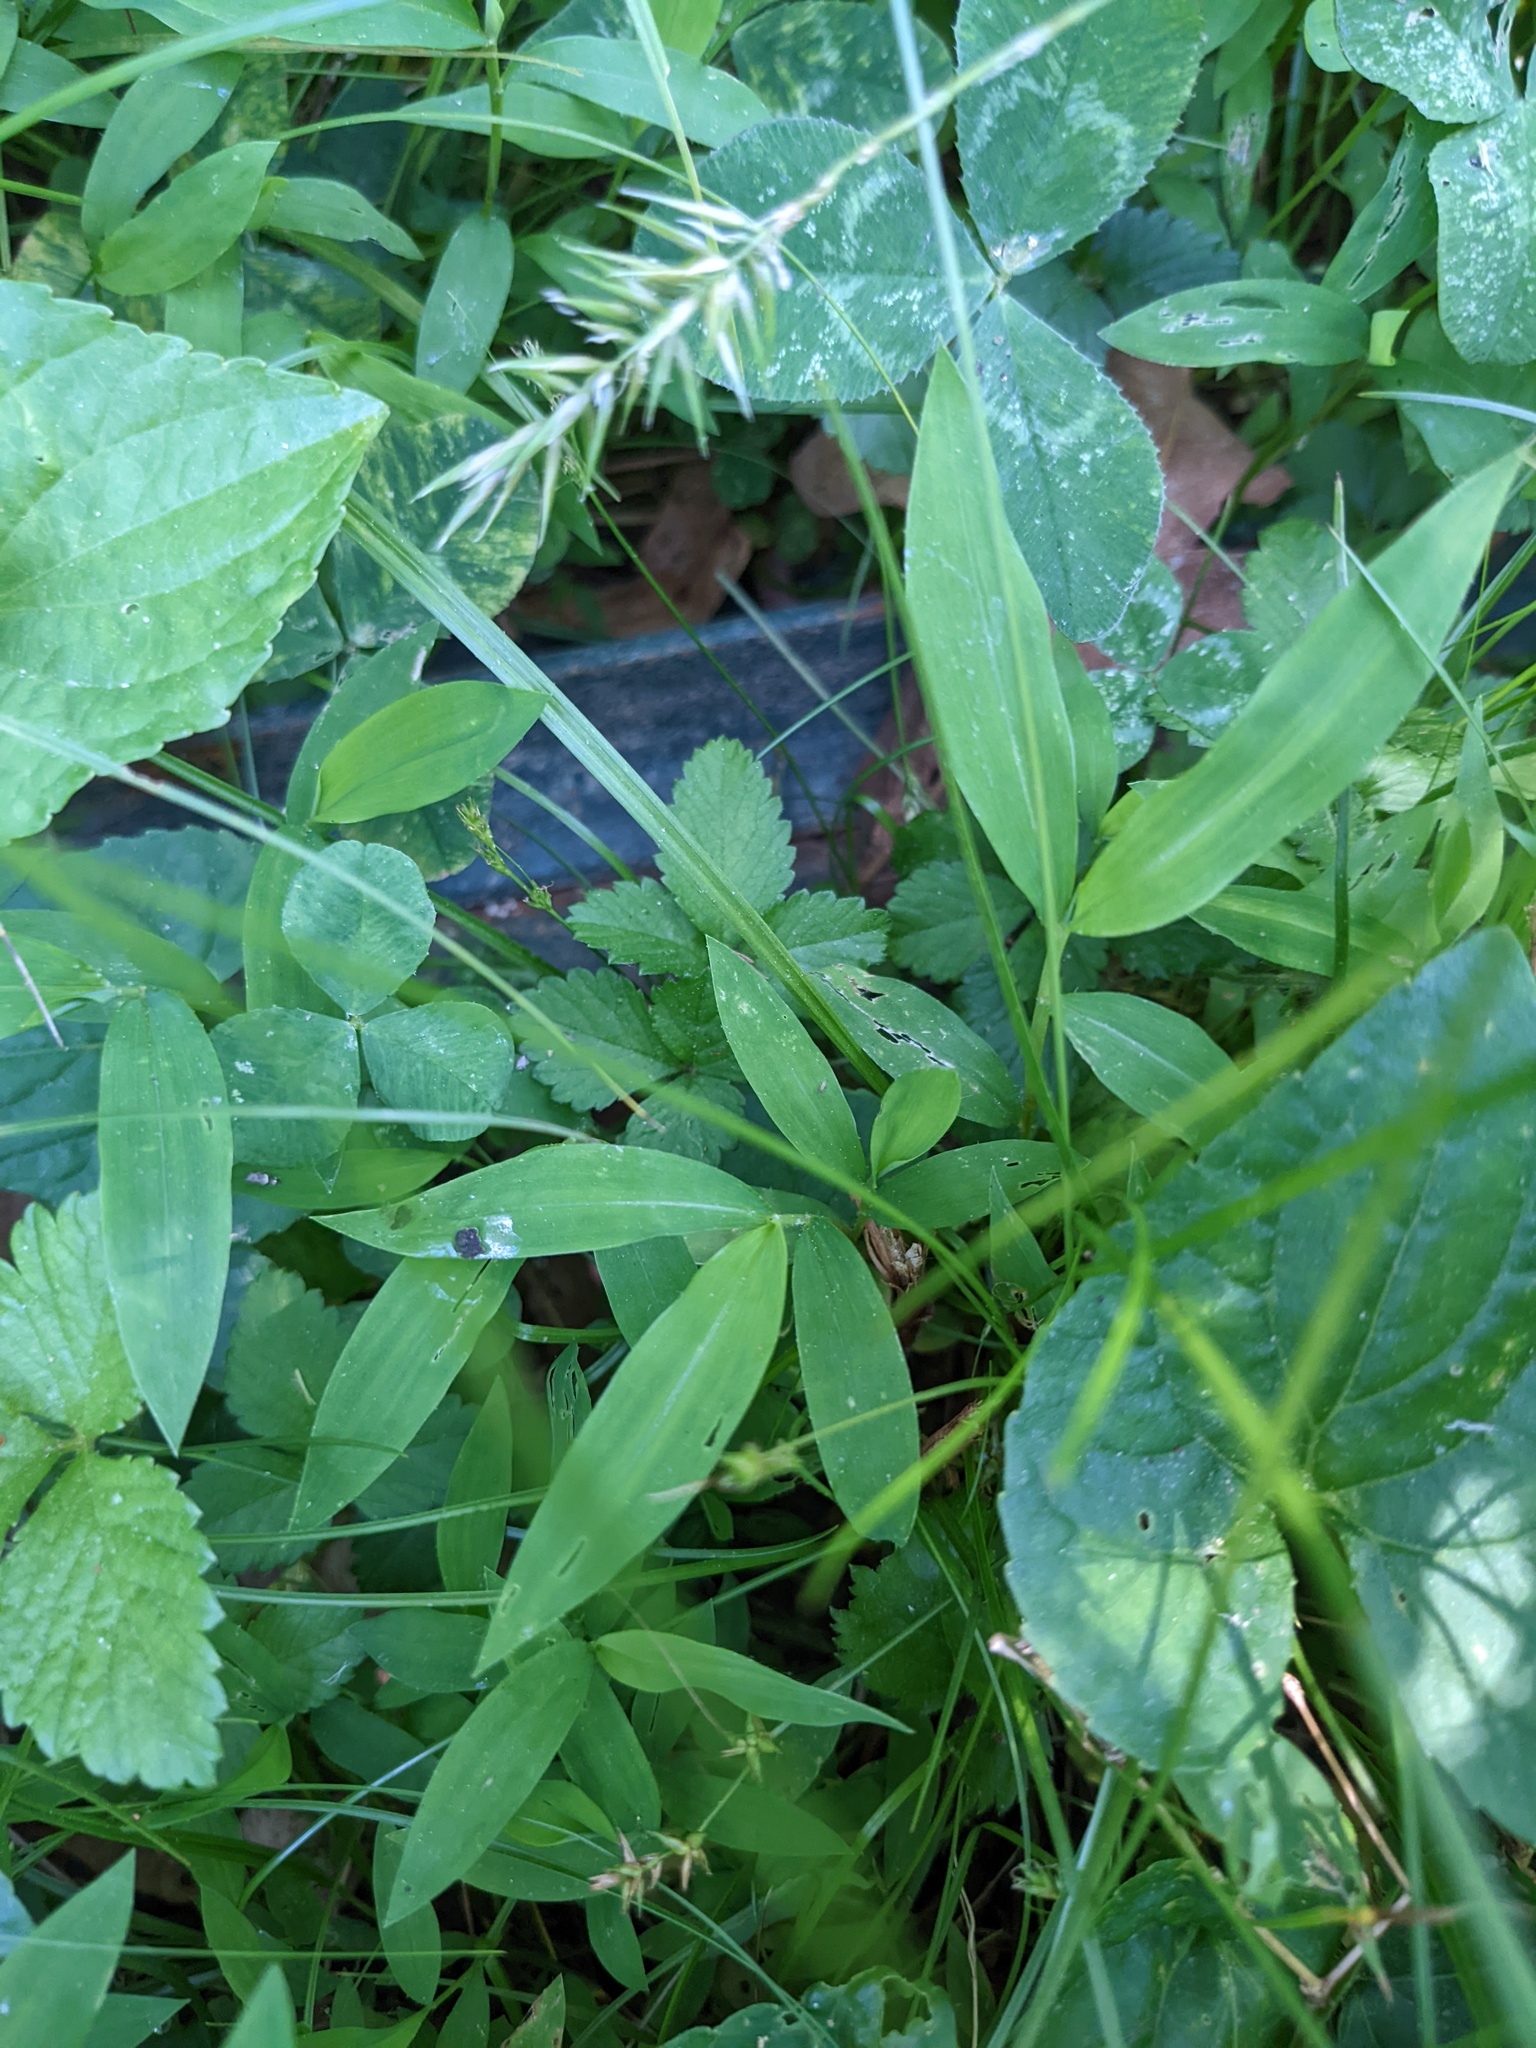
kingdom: Plantae
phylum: Tracheophyta
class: Liliopsida
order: Poales
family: Poaceae
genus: Microstegium
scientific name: Microstegium vimineum
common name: Japanese stiltgrass
